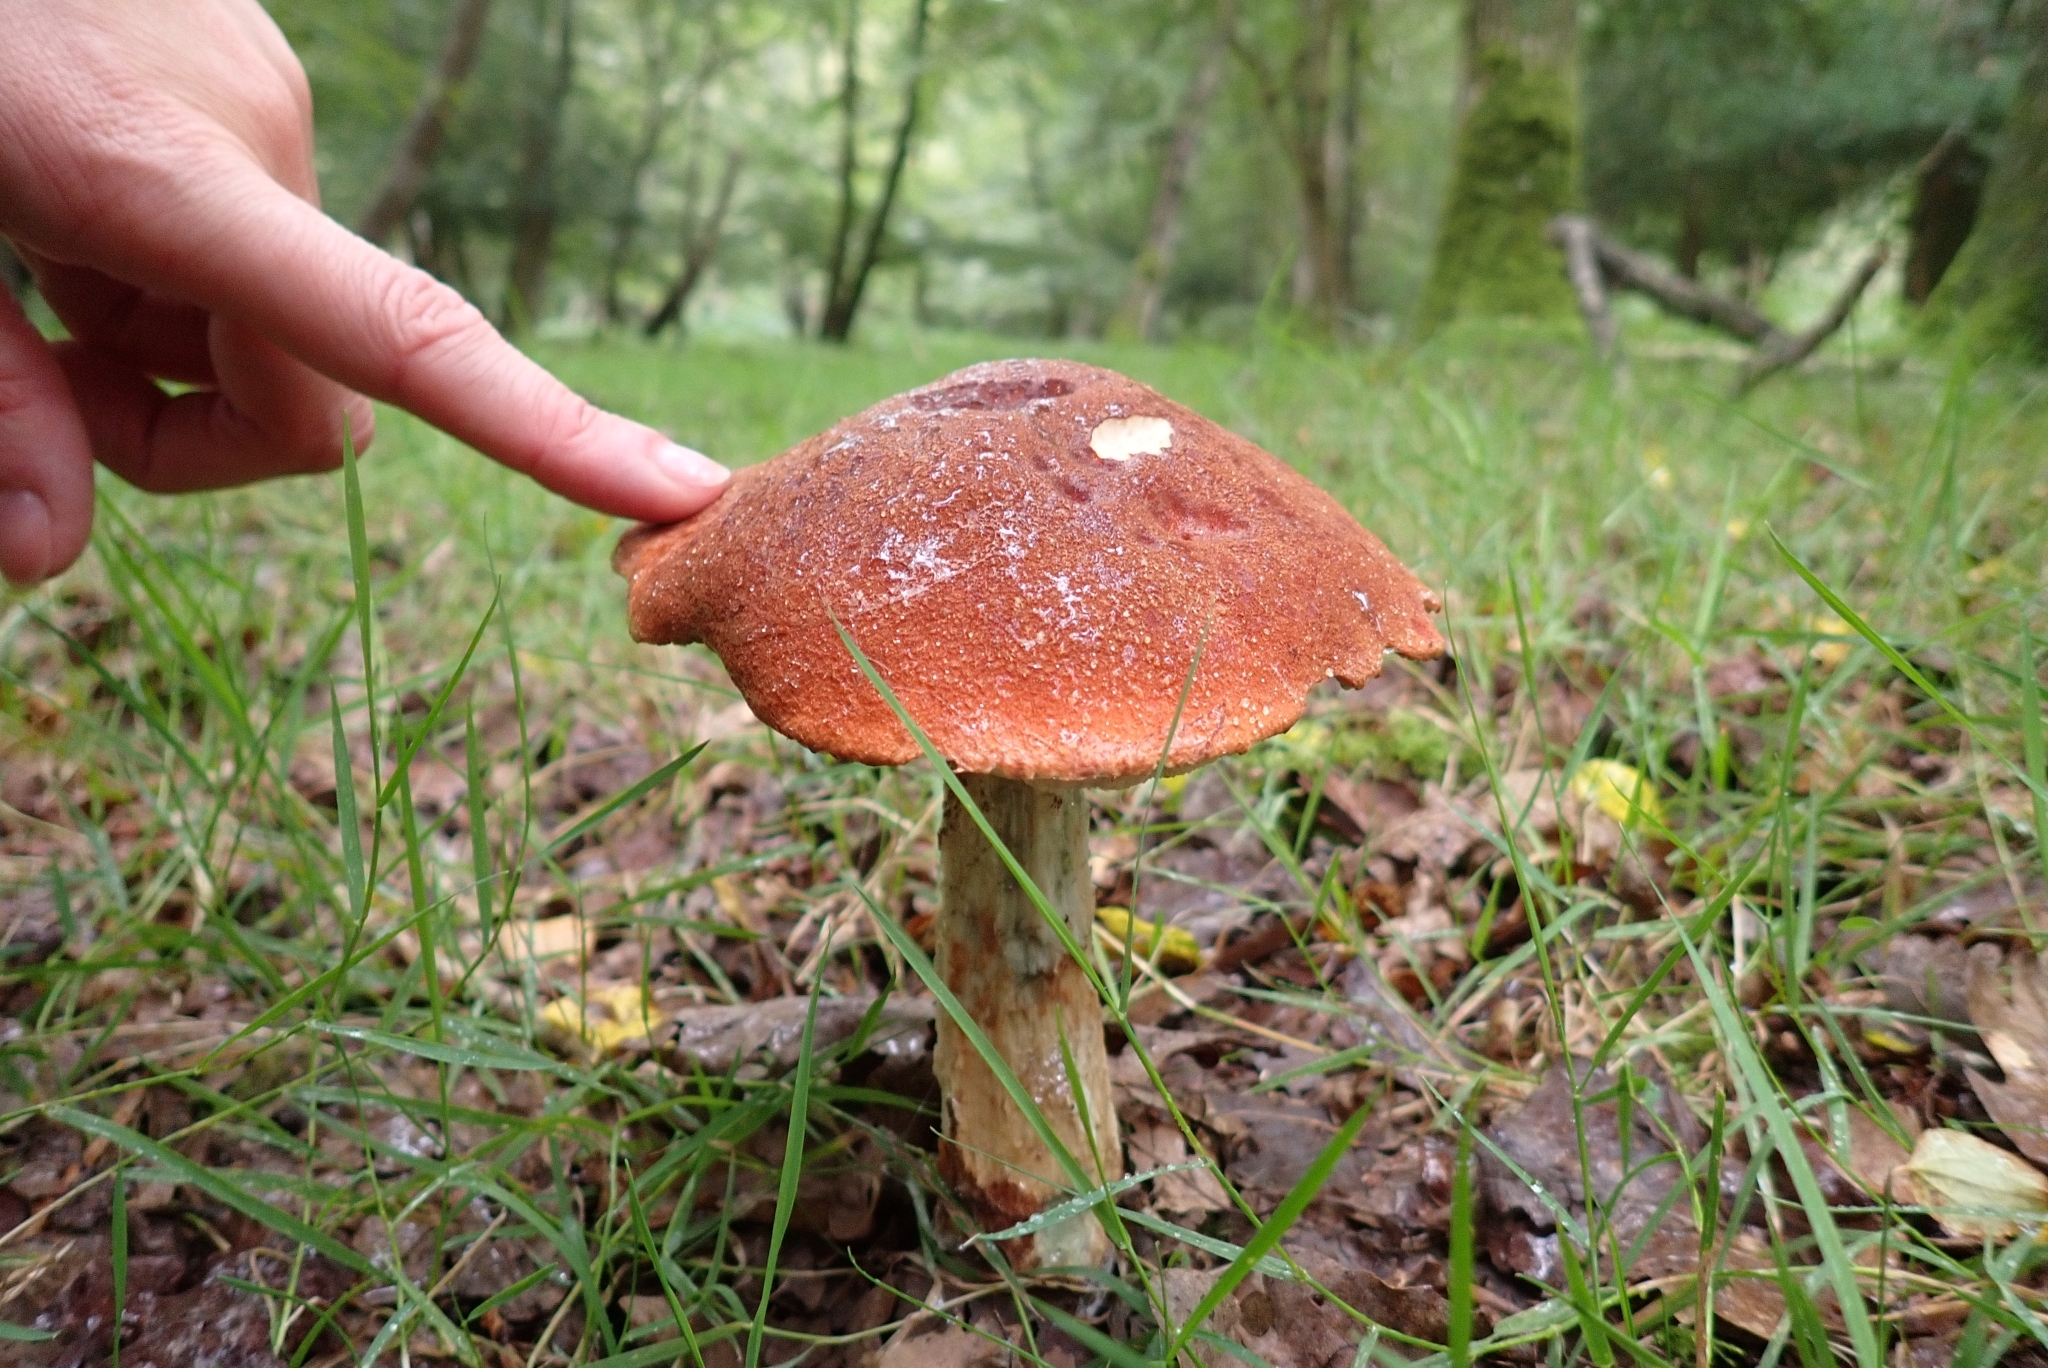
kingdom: Fungi
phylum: Basidiomycota
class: Agaricomycetes
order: Boletales
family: Boletaceae
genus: Leccinum
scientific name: Leccinum aurantiacum
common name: Orange bolete
